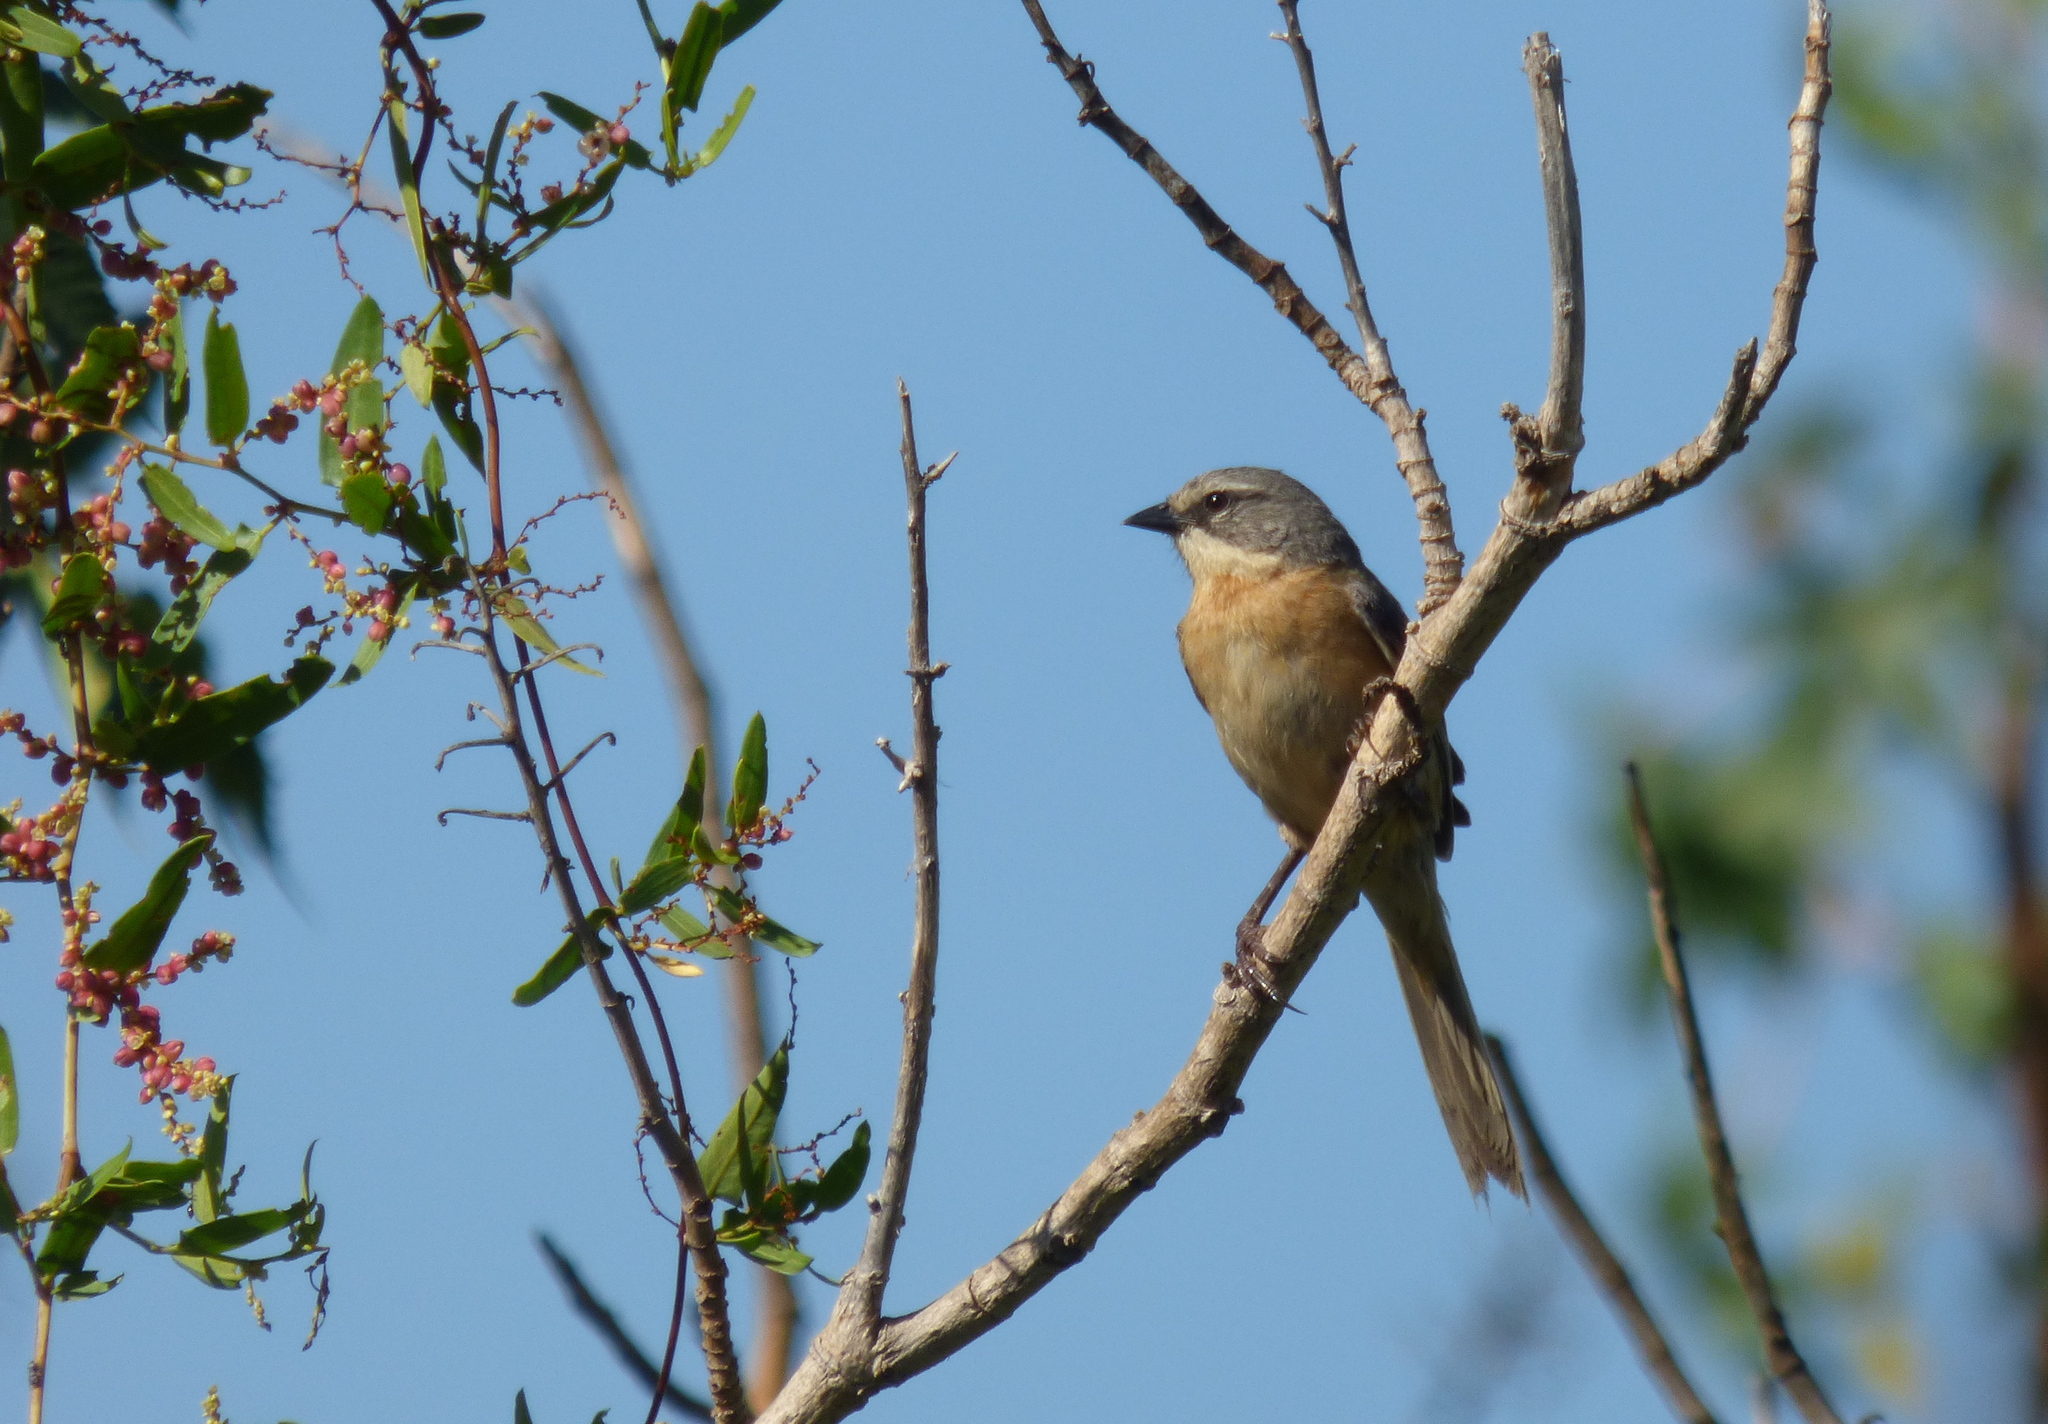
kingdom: Animalia
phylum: Chordata
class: Aves
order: Passeriformes
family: Thraupidae
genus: Donacospiza
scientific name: Donacospiza albifrons
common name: Long-tailed reed finch
